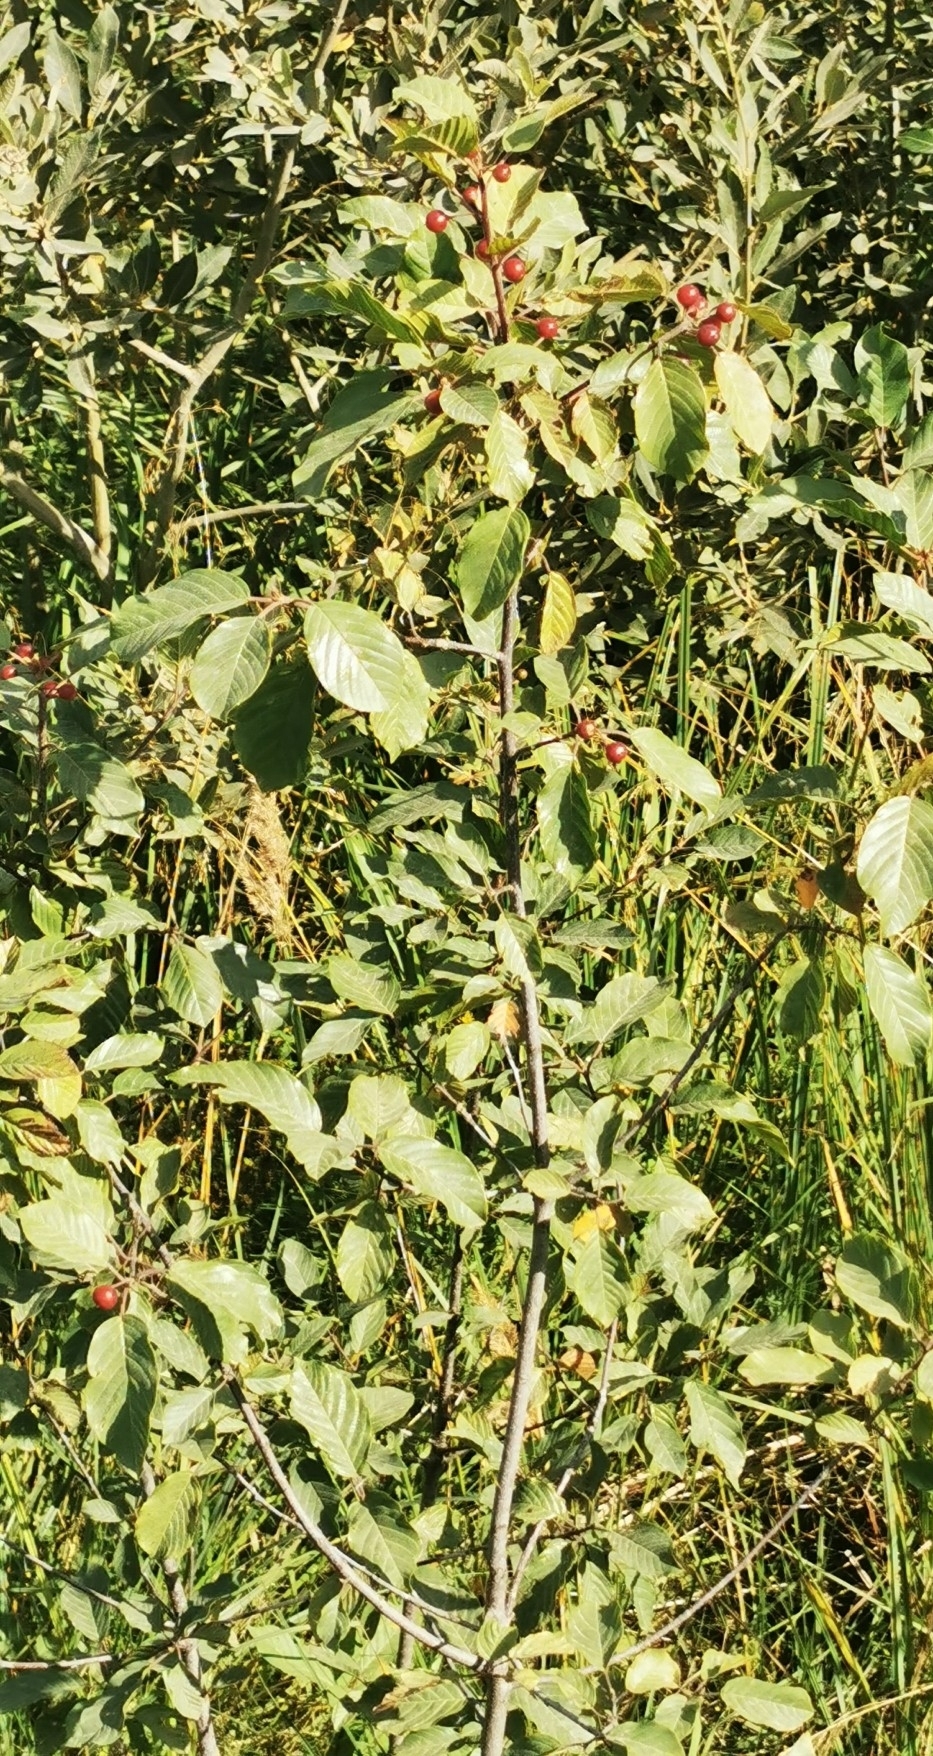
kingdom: Plantae
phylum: Tracheophyta
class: Magnoliopsida
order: Rosales
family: Rhamnaceae
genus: Frangula
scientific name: Frangula alnus
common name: Alder buckthorn
